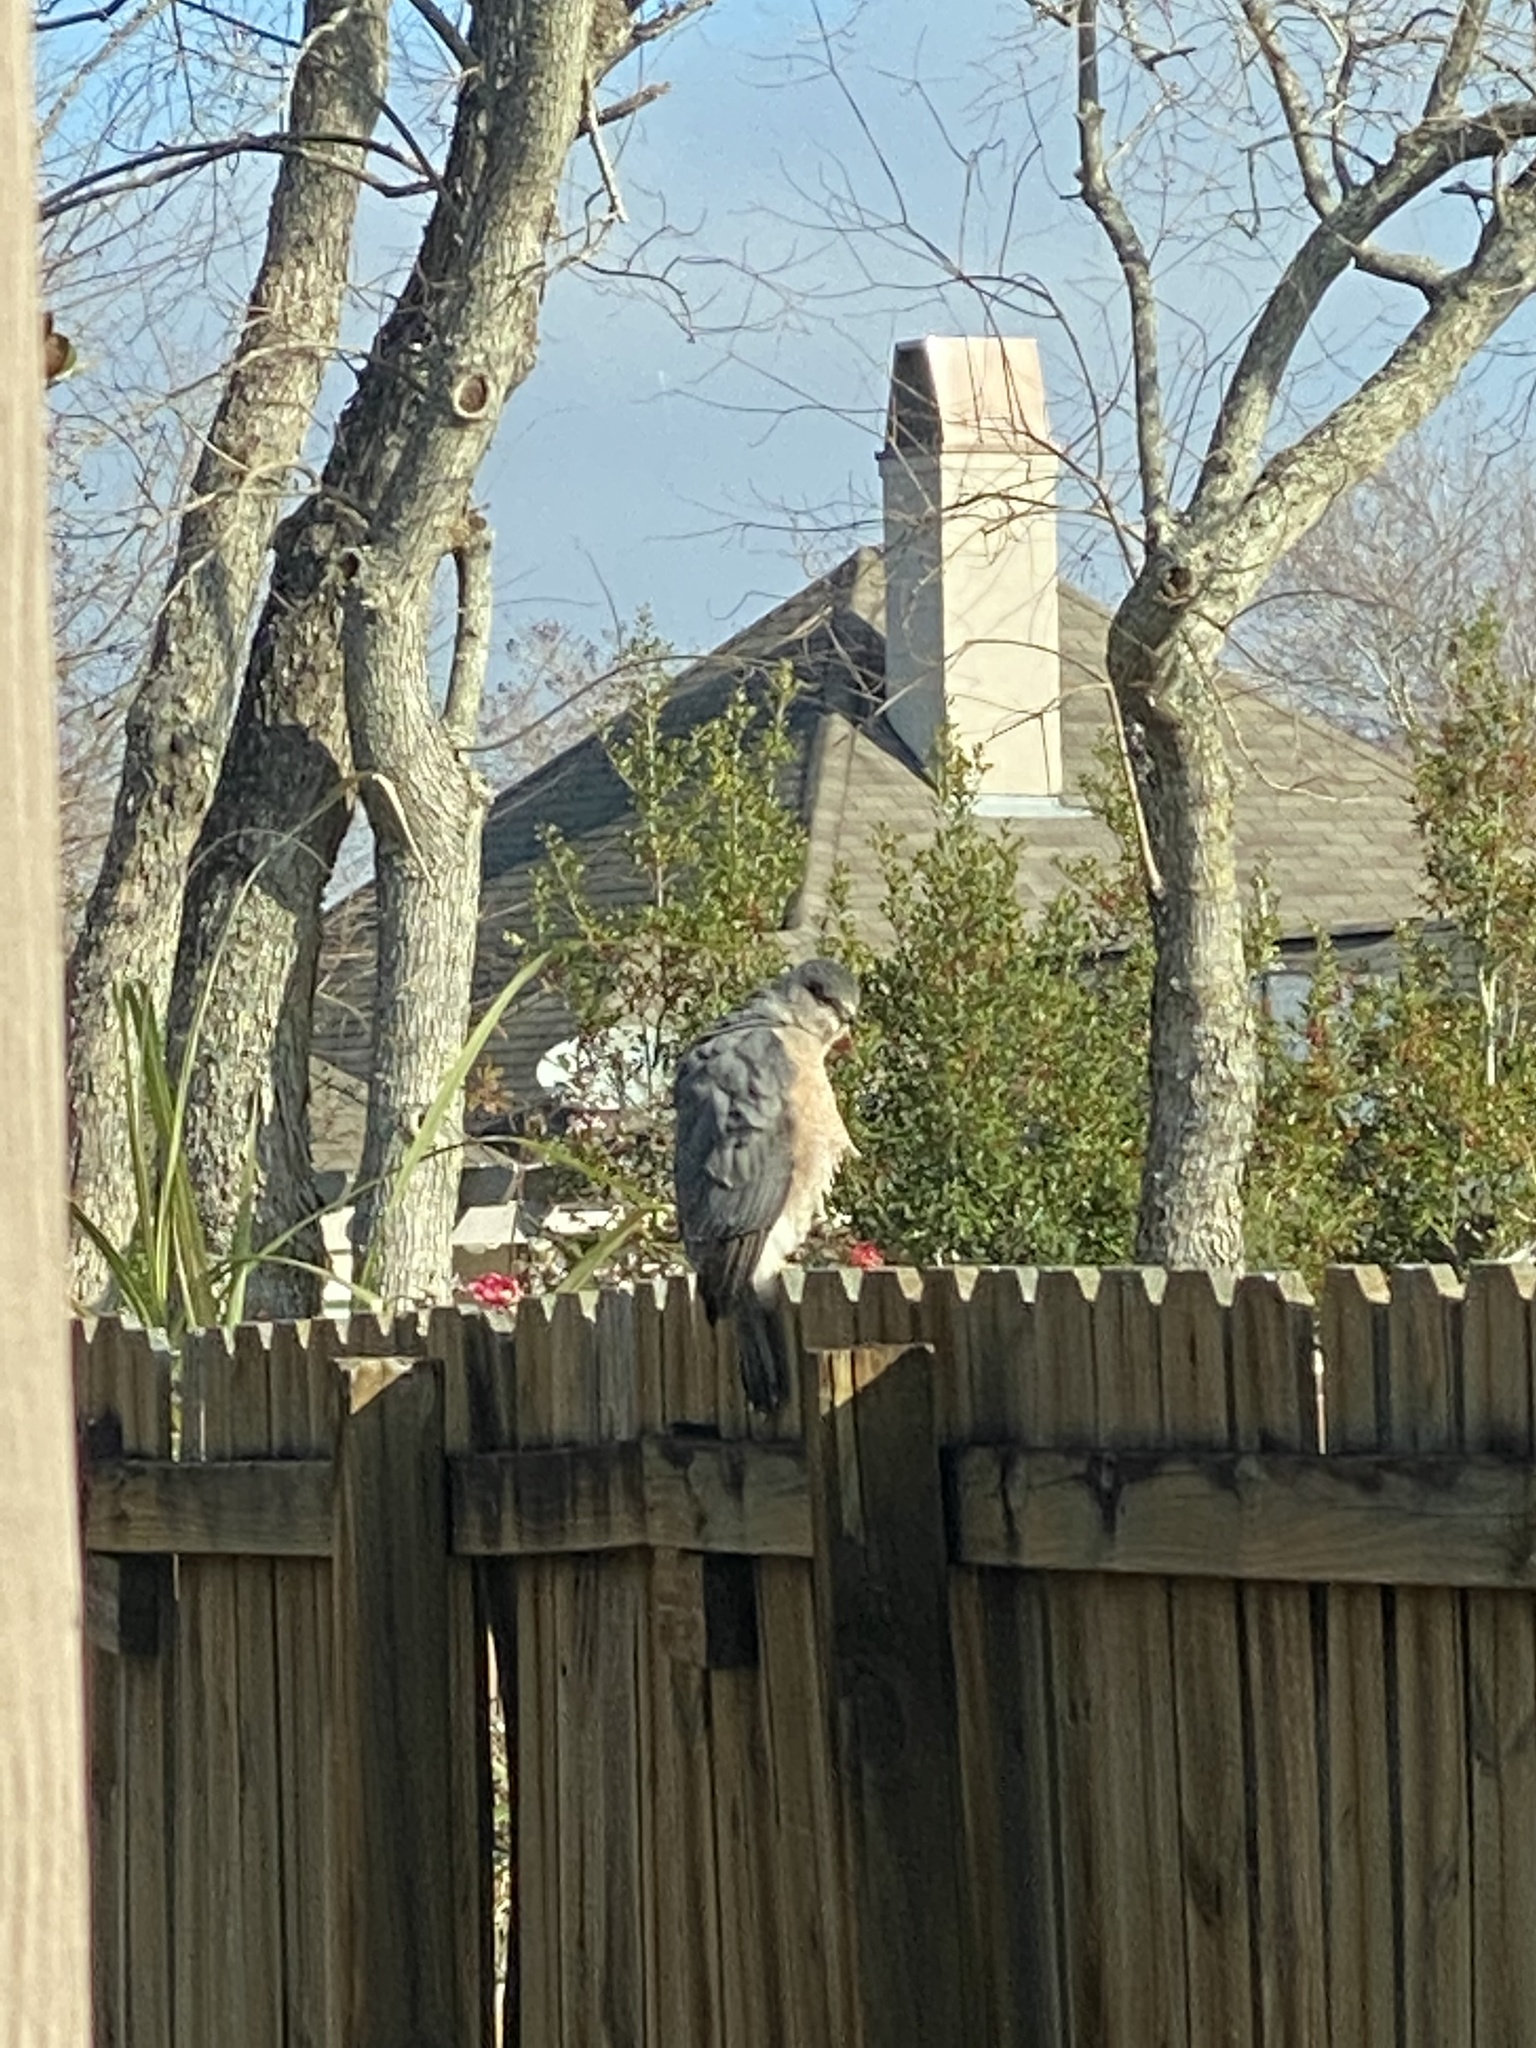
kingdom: Animalia
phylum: Chordata
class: Aves
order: Accipitriformes
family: Accipitridae
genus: Accipiter
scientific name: Accipiter cooperii
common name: Cooper's hawk
